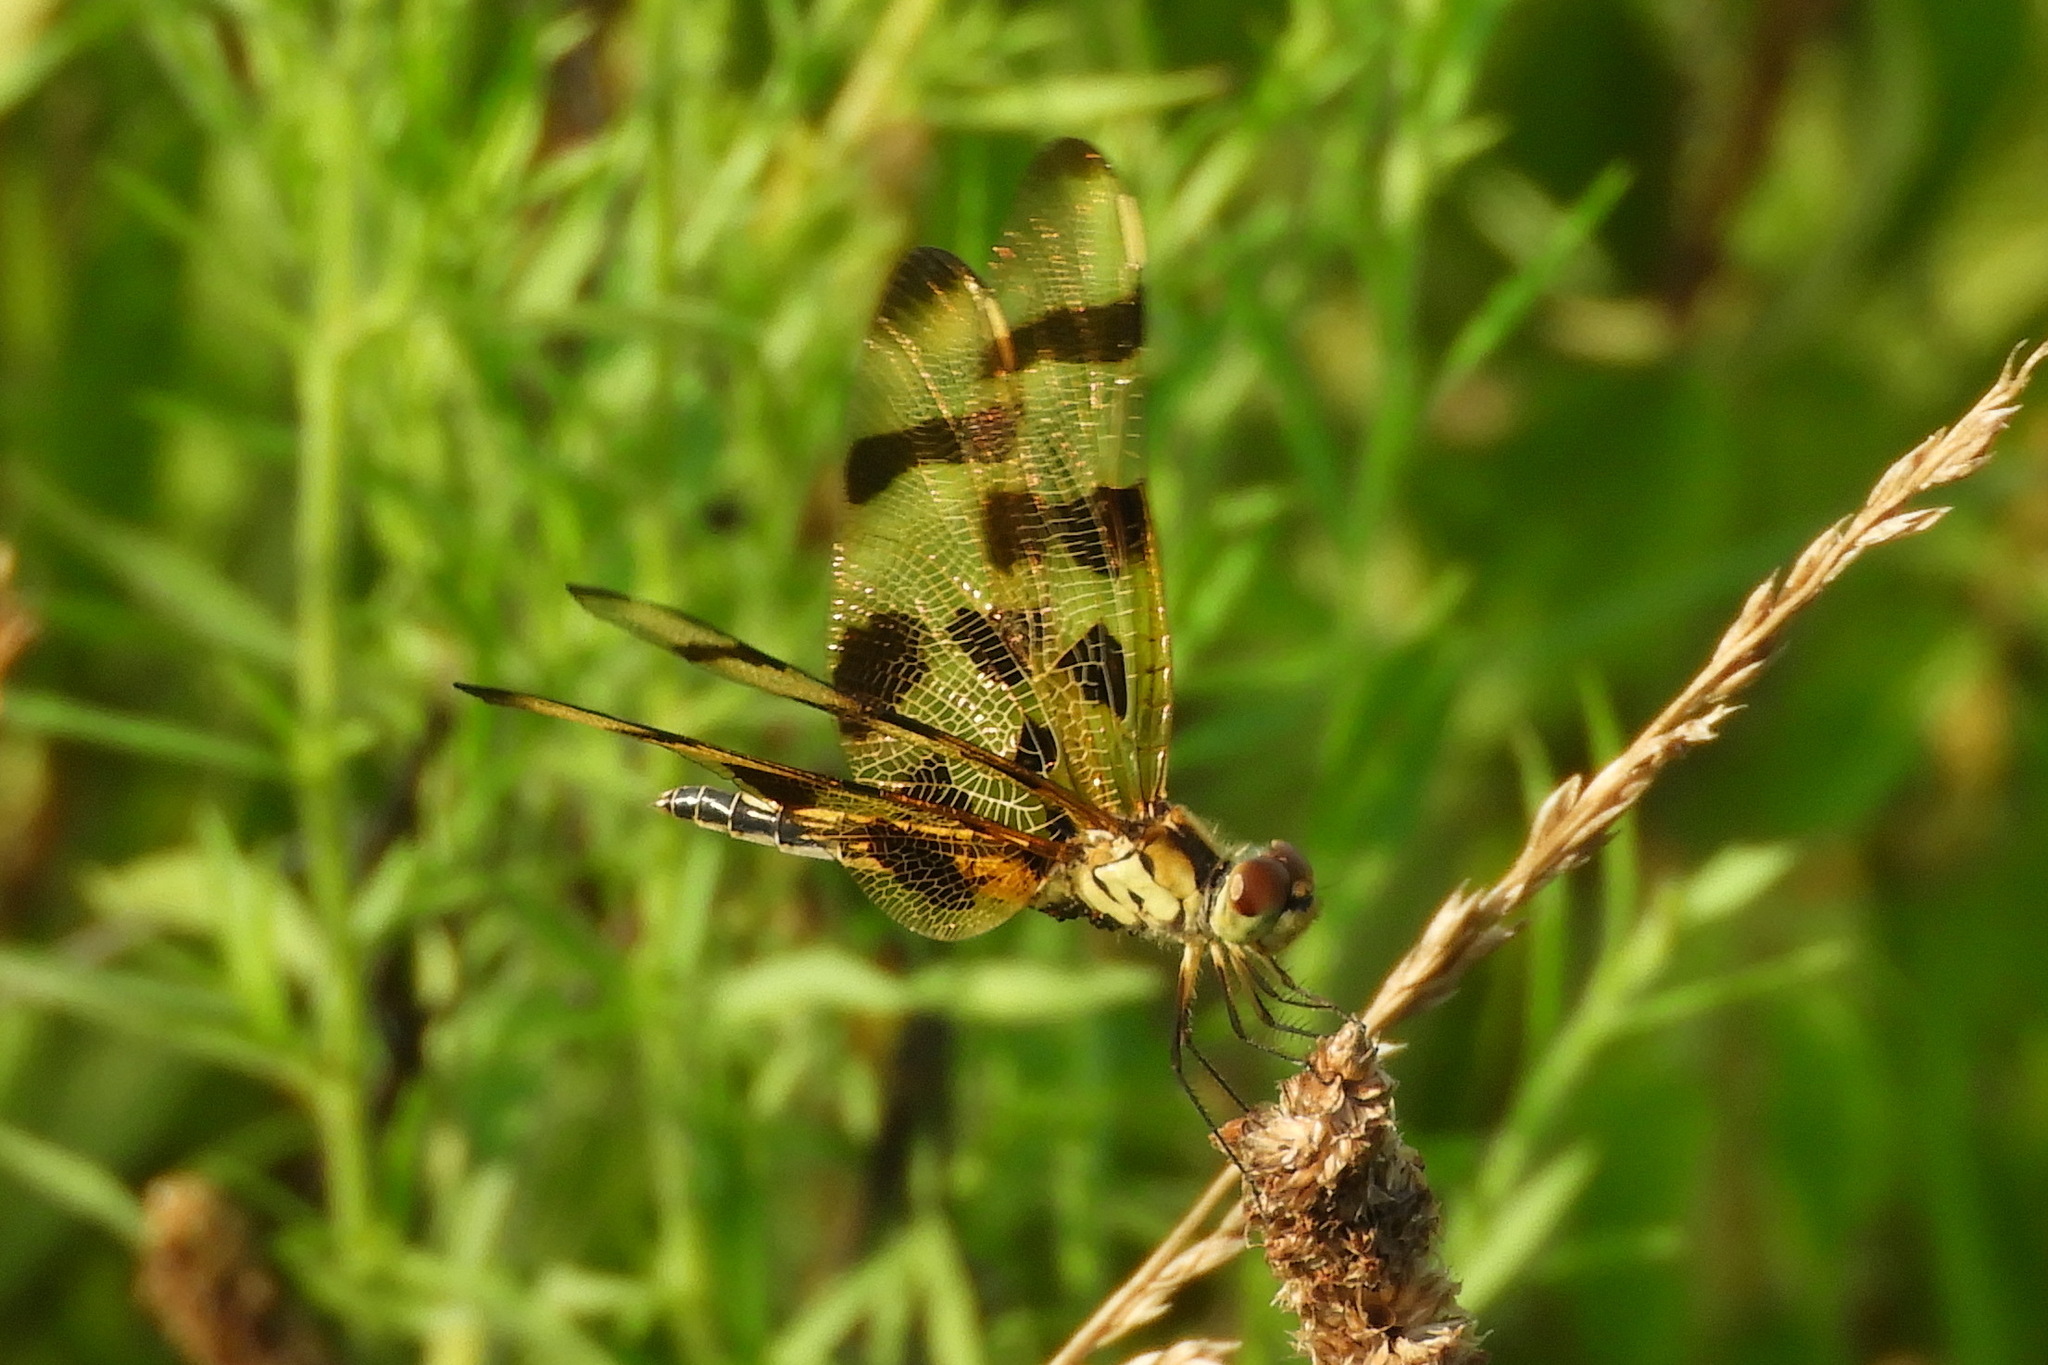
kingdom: Animalia
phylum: Arthropoda
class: Insecta
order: Odonata
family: Libellulidae
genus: Celithemis
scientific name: Celithemis eponina
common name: Halloween pennant
